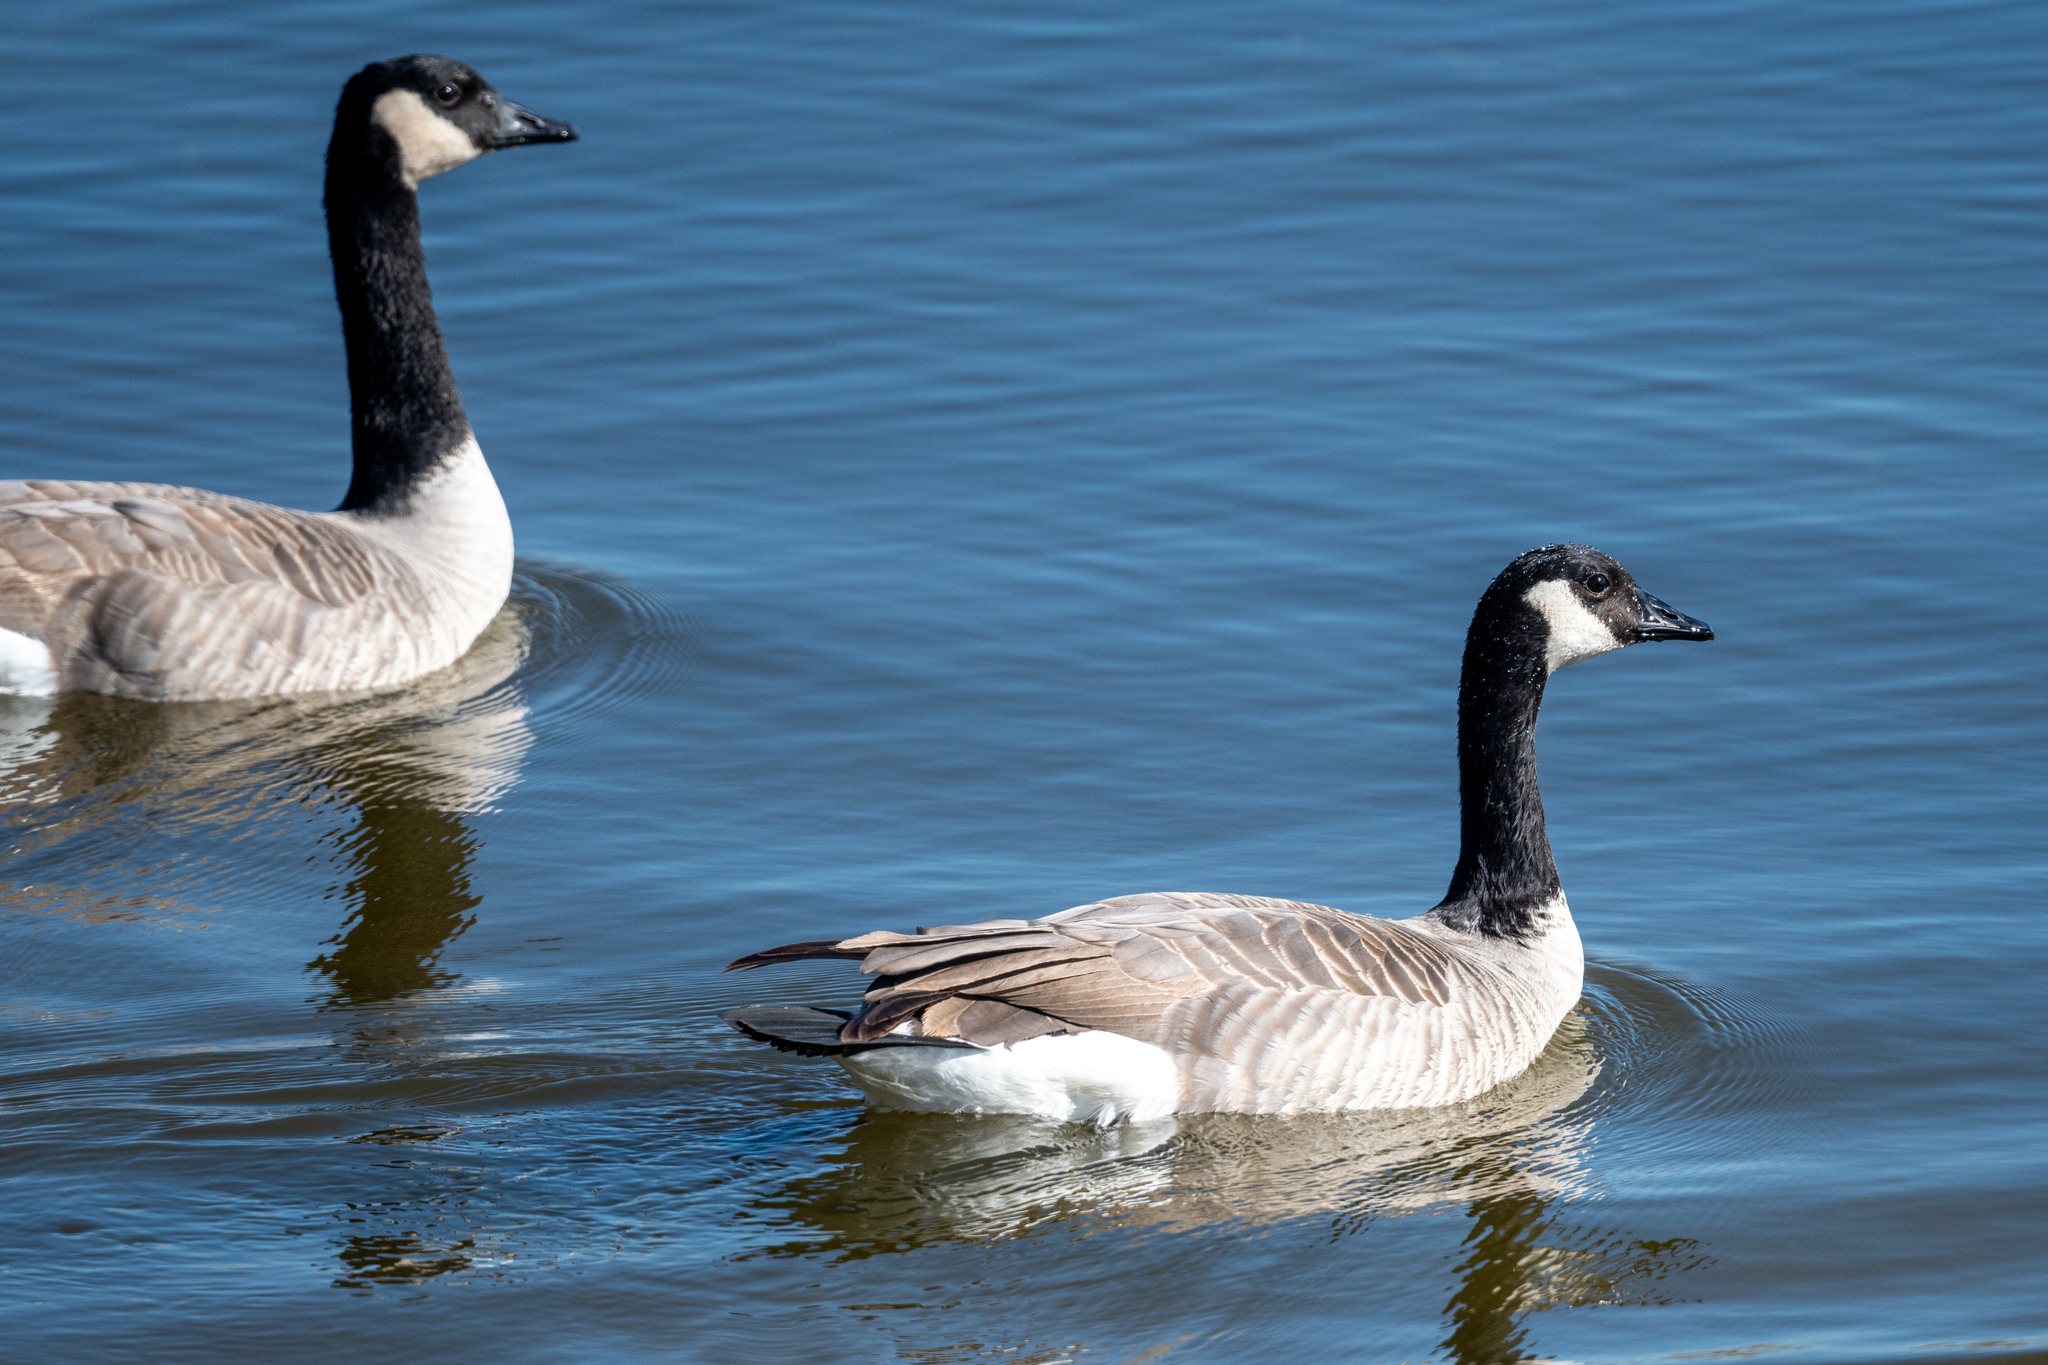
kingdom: Animalia
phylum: Chordata
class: Aves
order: Anseriformes
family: Anatidae
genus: Branta
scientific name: Branta canadensis
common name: Canada goose
